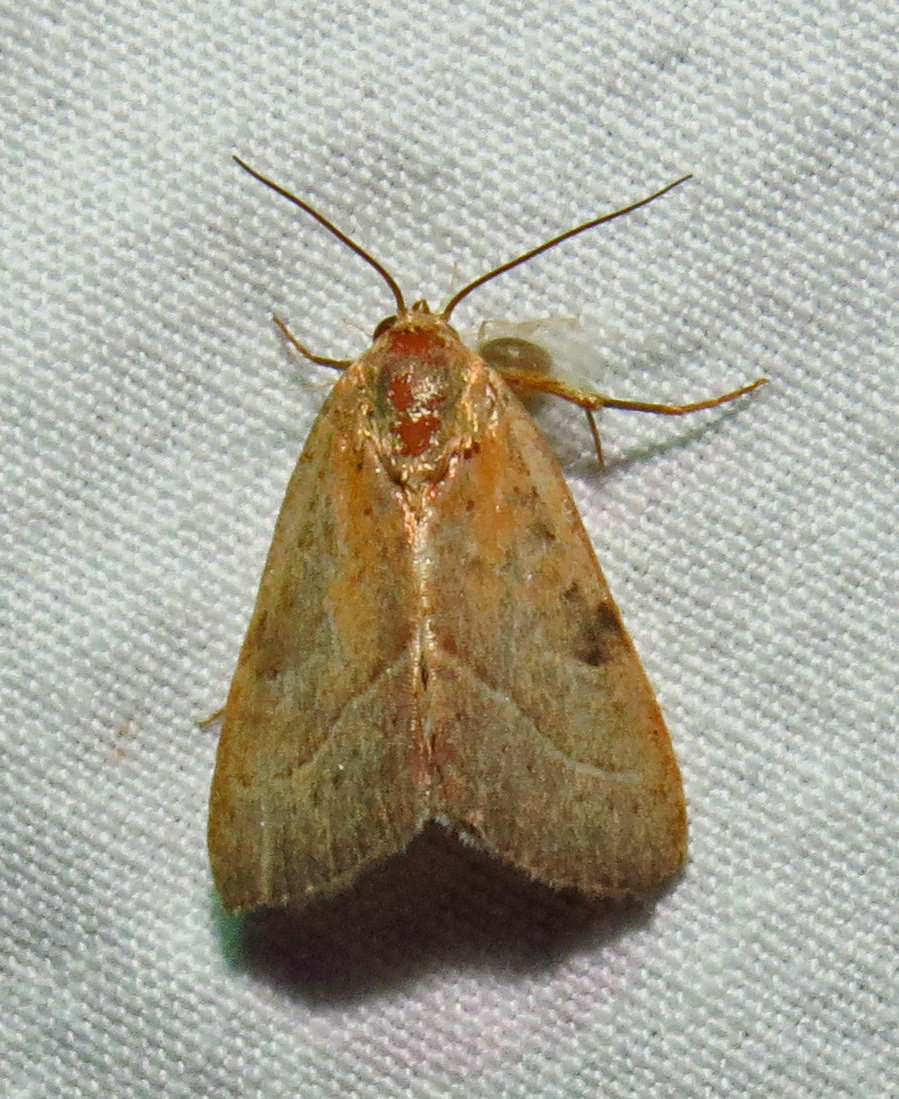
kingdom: Animalia
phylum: Arthropoda
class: Insecta
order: Lepidoptera
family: Noctuidae
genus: Galgula
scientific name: Galgula partita
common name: Wedgeling
